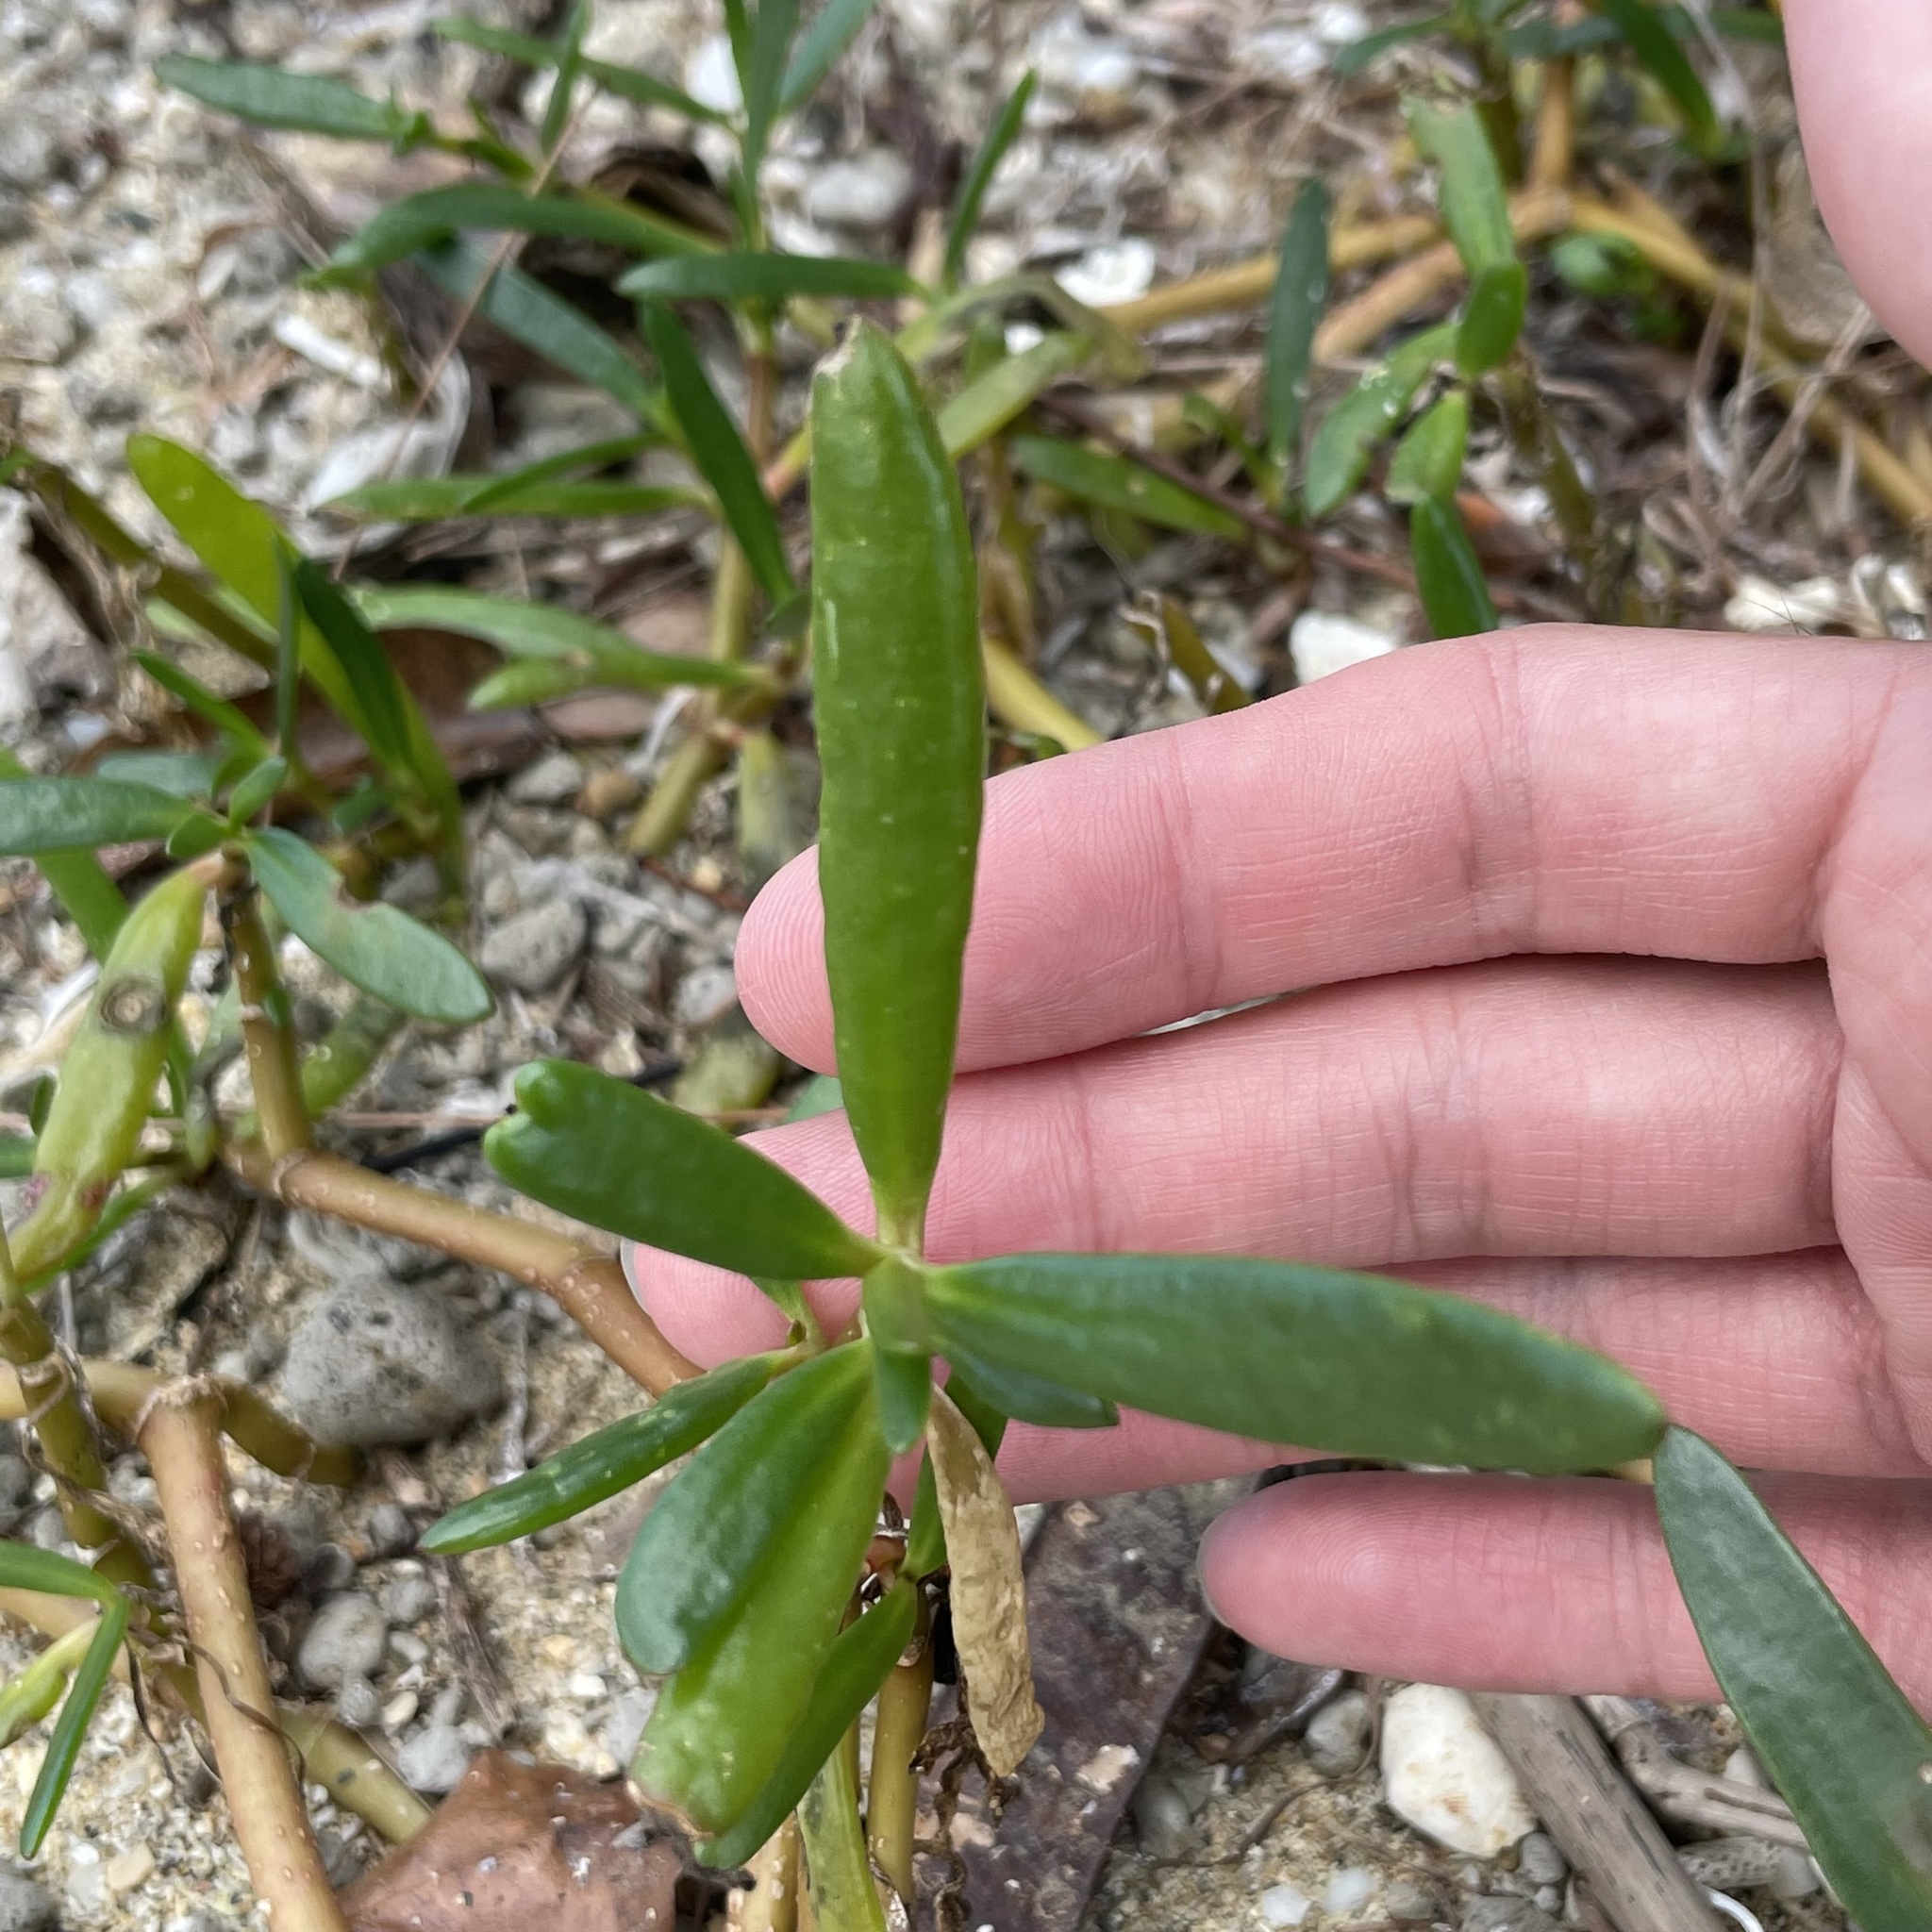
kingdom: Plantae
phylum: Tracheophyta
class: Magnoliopsida
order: Caryophyllales
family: Aizoaceae
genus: Sesuvium
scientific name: Sesuvium portulacastrum
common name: Sea-purslane
